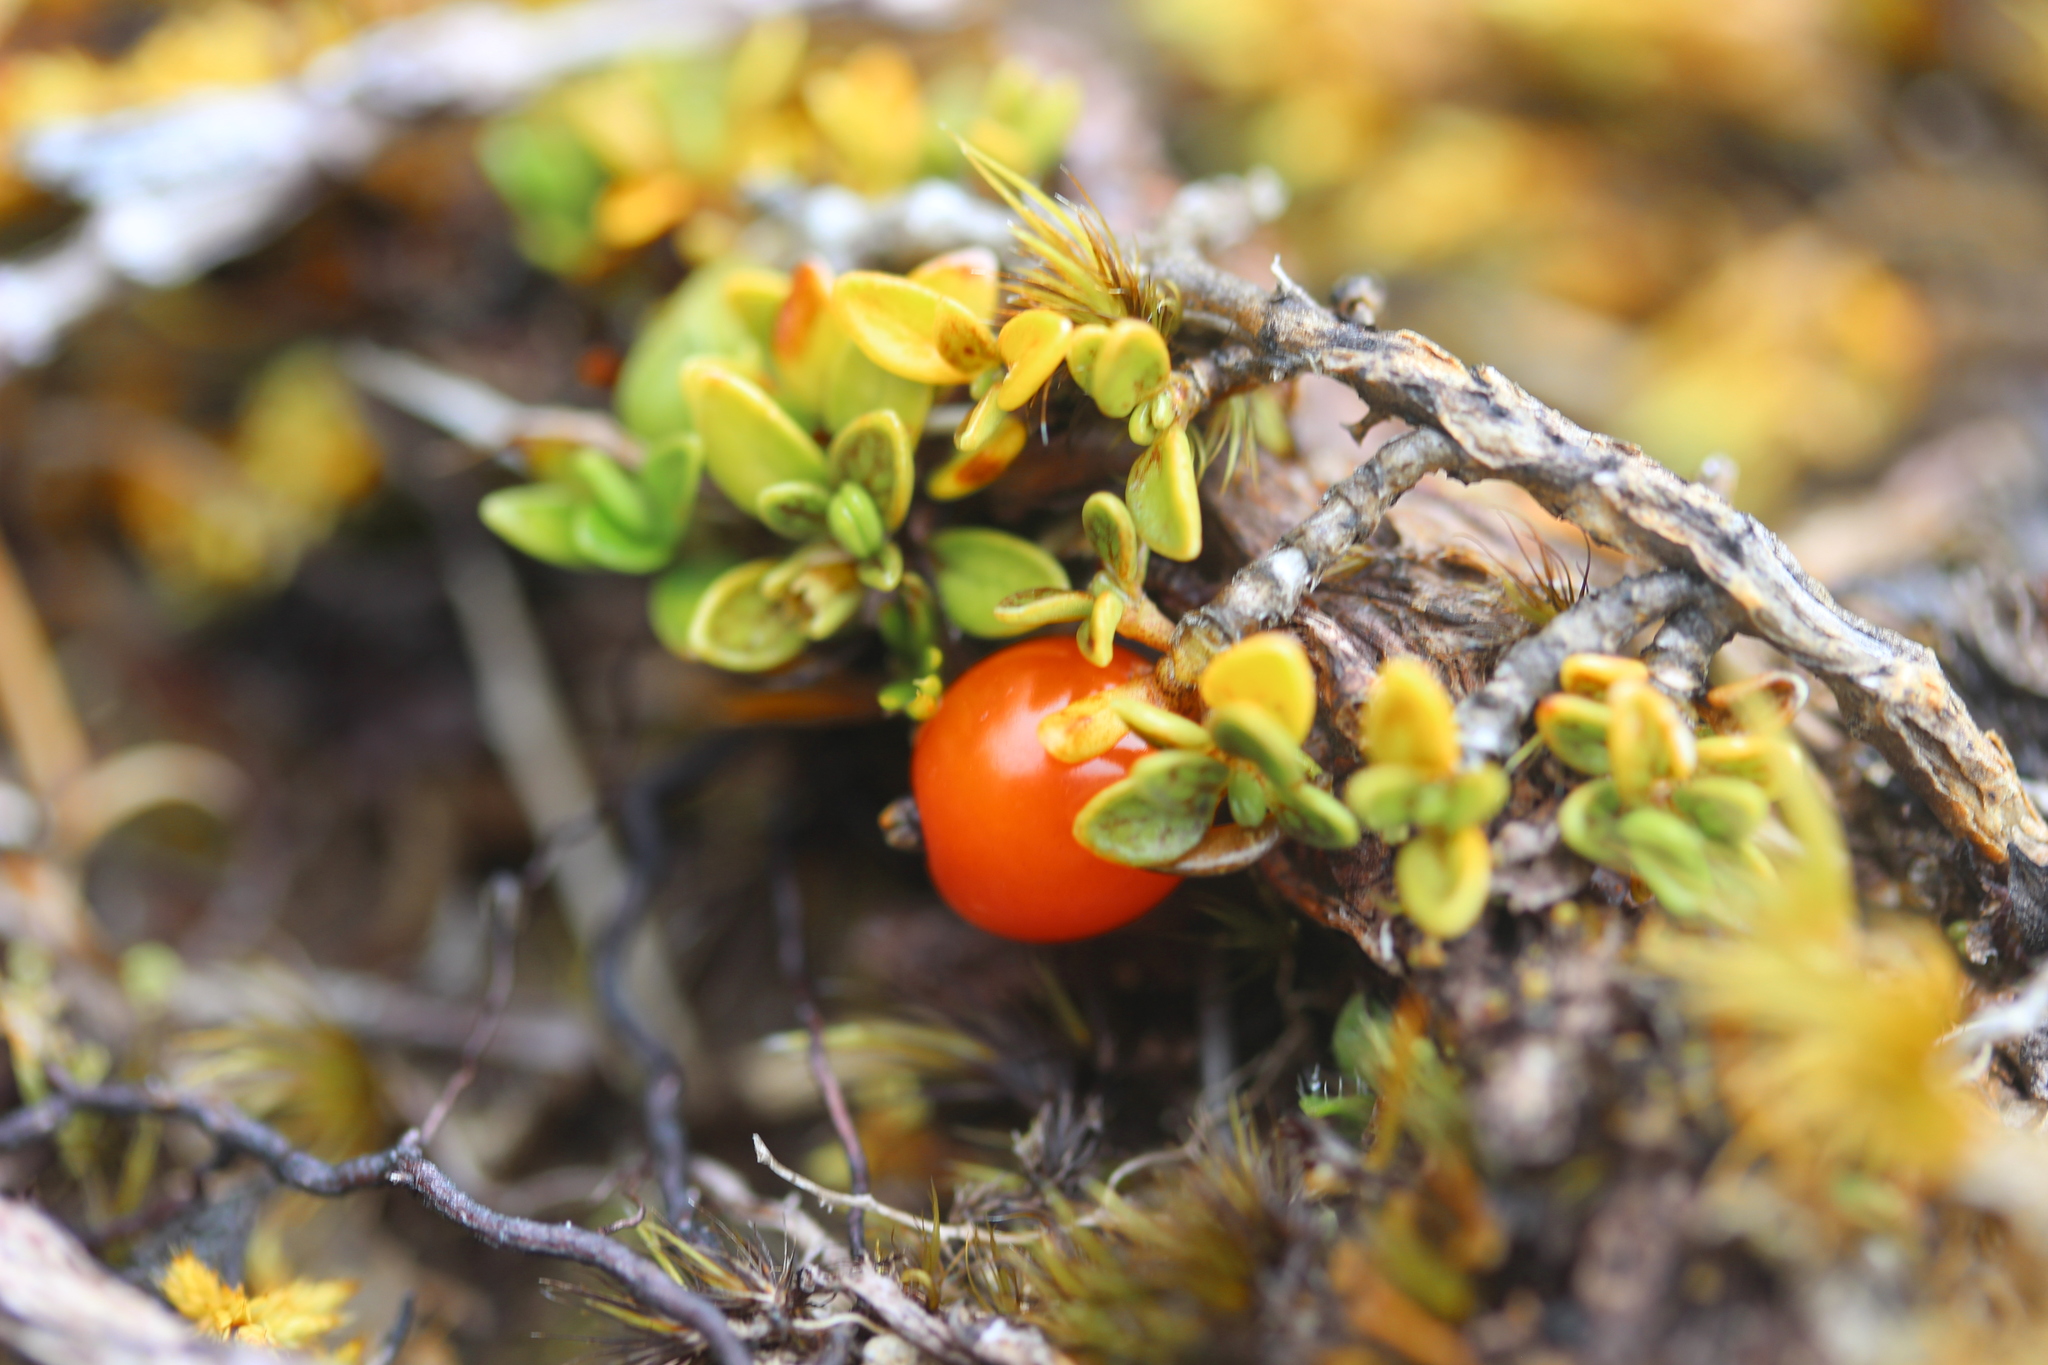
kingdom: Plantae
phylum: Tracheophyta
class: Magnoliopsida
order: Gentianales
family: Rubiaceae
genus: Coprosma
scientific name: Coprosma perpusilla
